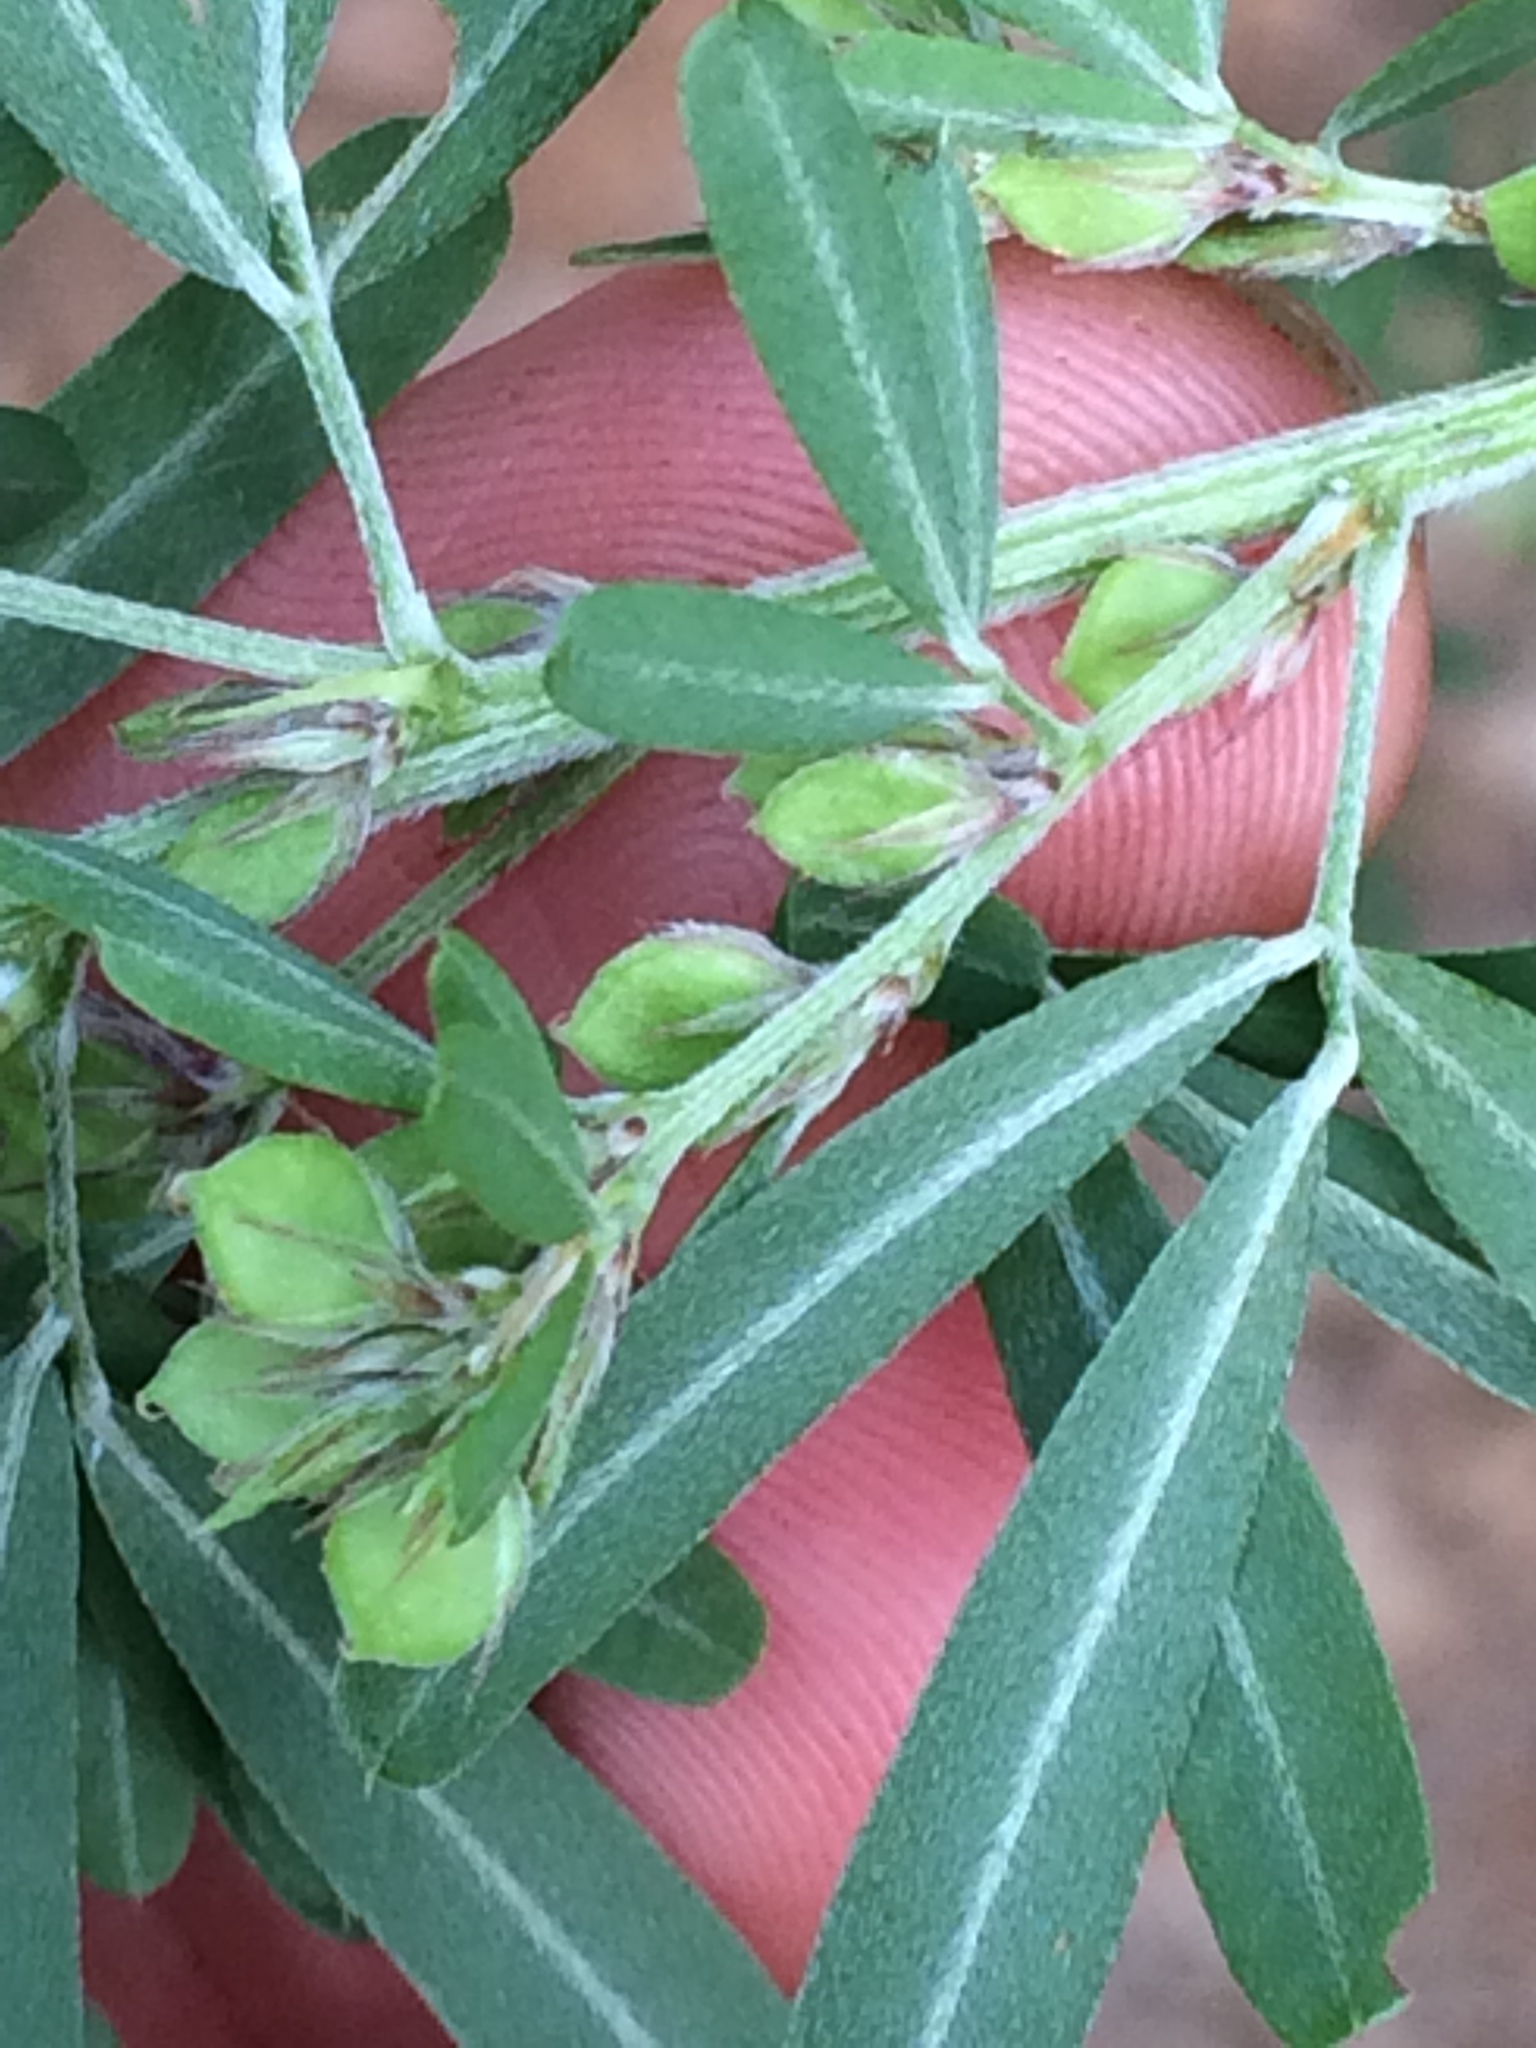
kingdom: Plantae
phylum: Tracheophyta
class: Magnoliopsida
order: Fabales
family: Fabaceae
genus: Lespedeza
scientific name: Lespedeza cuneata
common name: Chinese bush-clover
